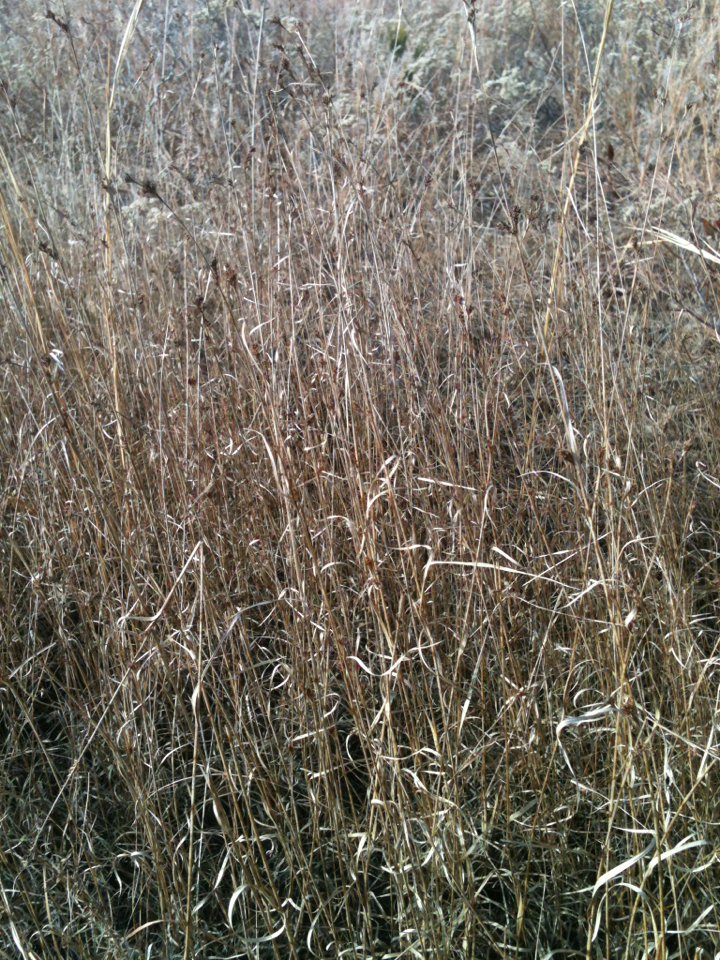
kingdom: Plantae
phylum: Tracheophyta
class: Liliopsida
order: Poales
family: Cyperaceae
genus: Rhynchospora
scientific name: Rhynchospora capitellata
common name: Brownish beaksedge
